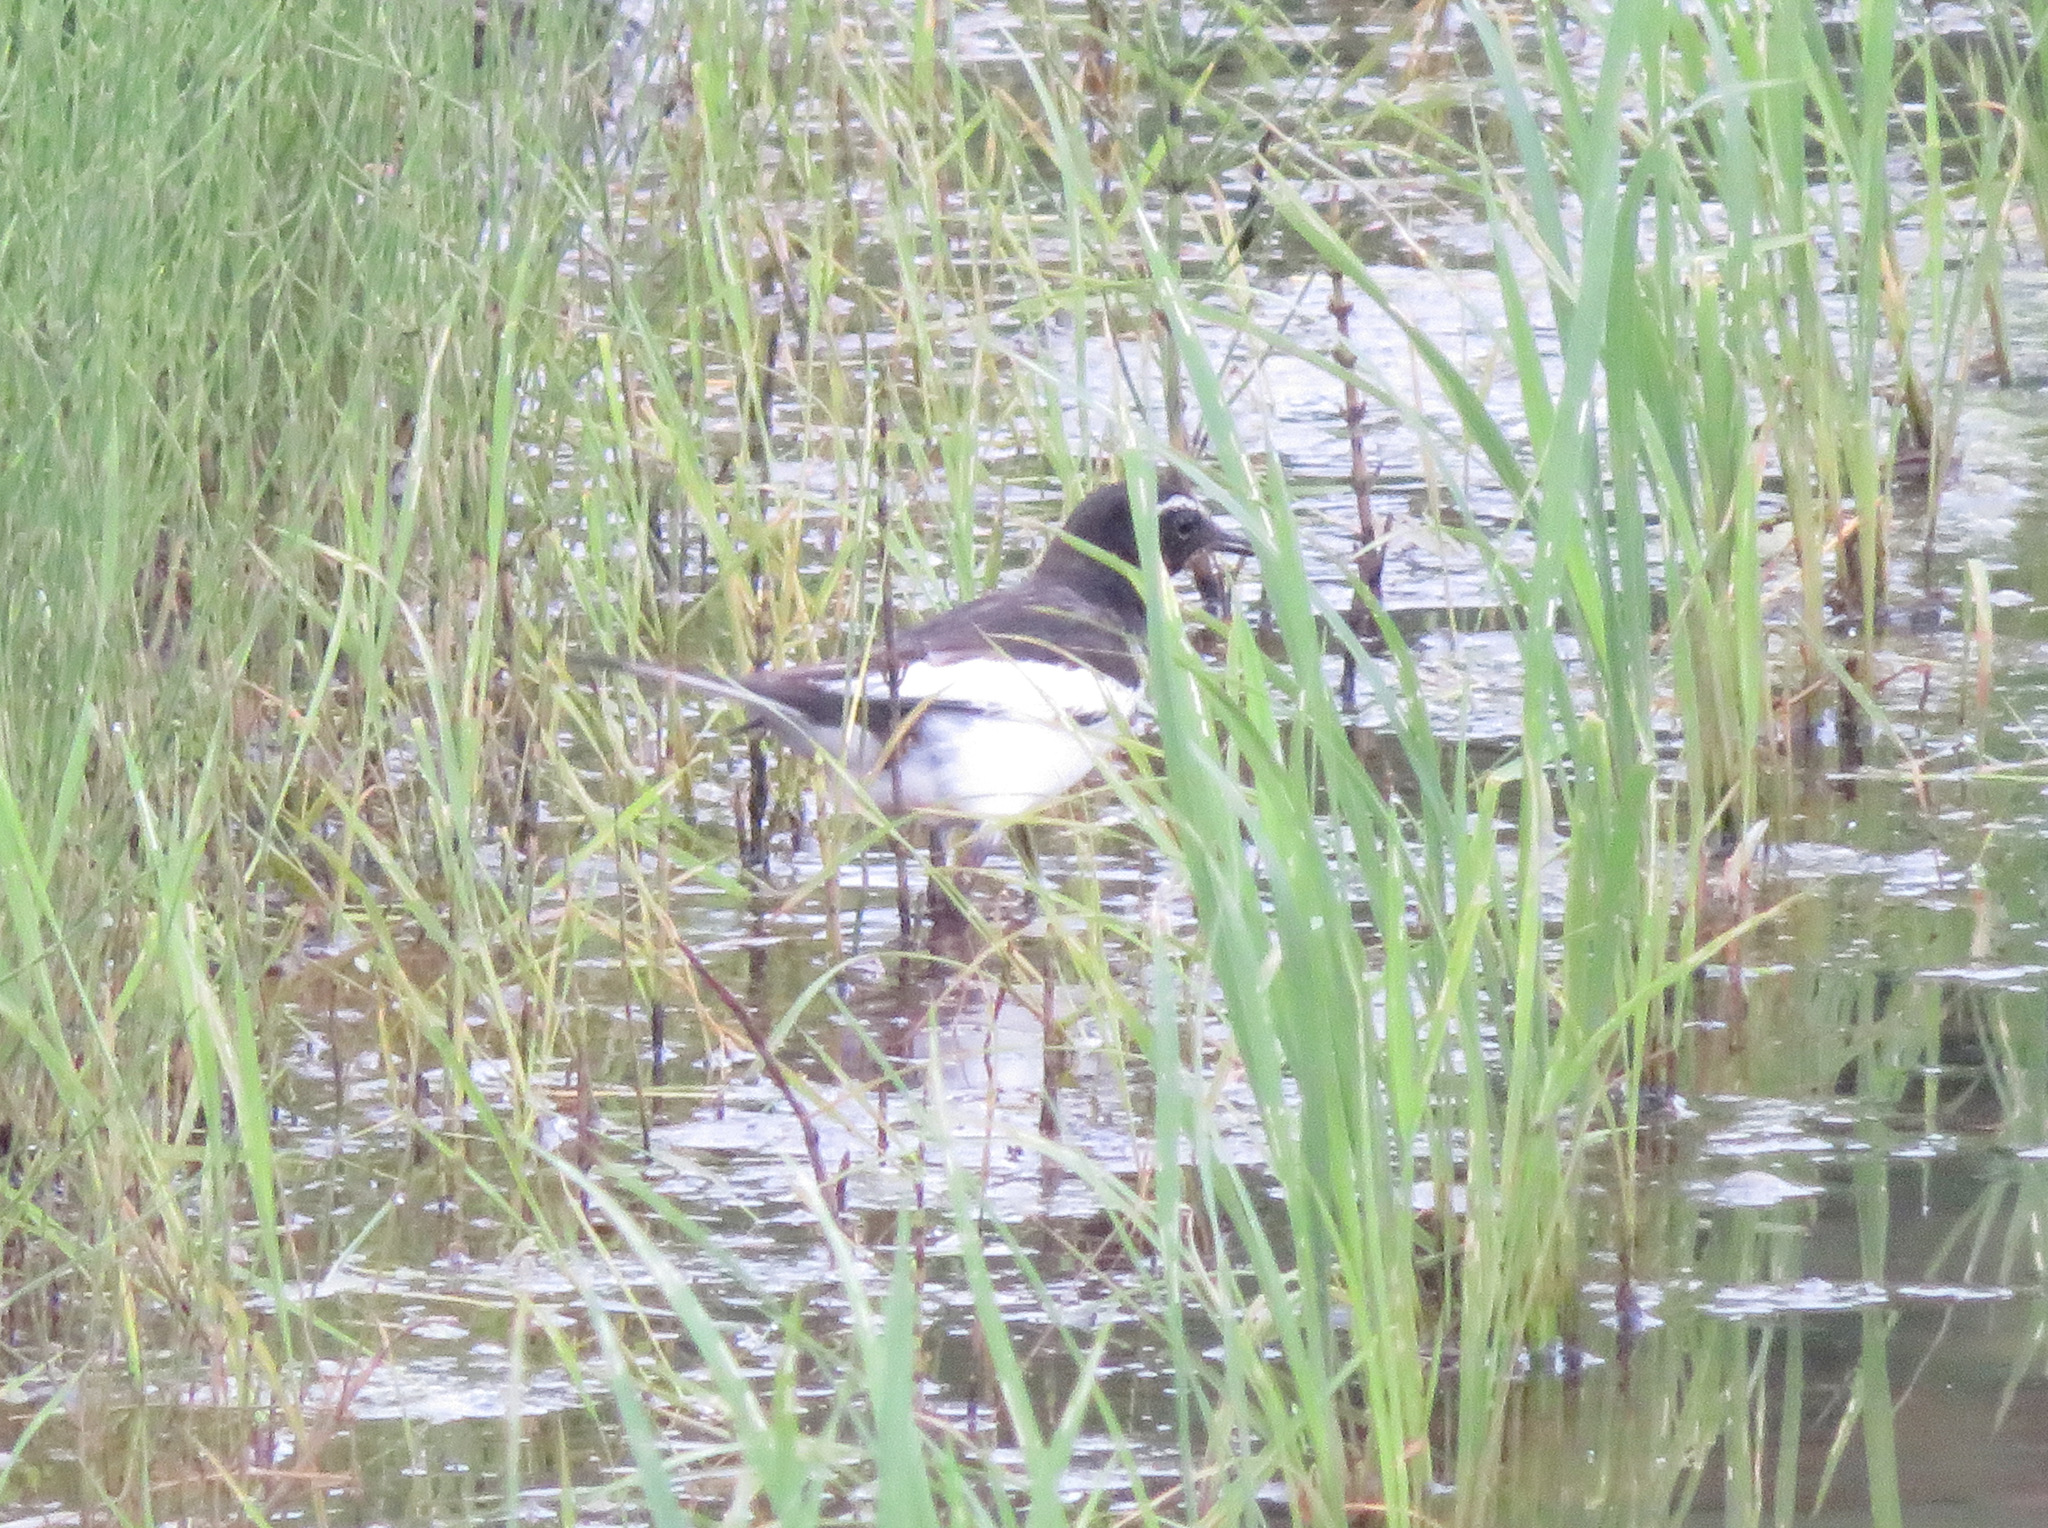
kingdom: Animalia
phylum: Chordata
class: Aves
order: Passeriformes
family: Motacillidae
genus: Motacilla
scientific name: Motacilla grandis
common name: Japanese wagtail
